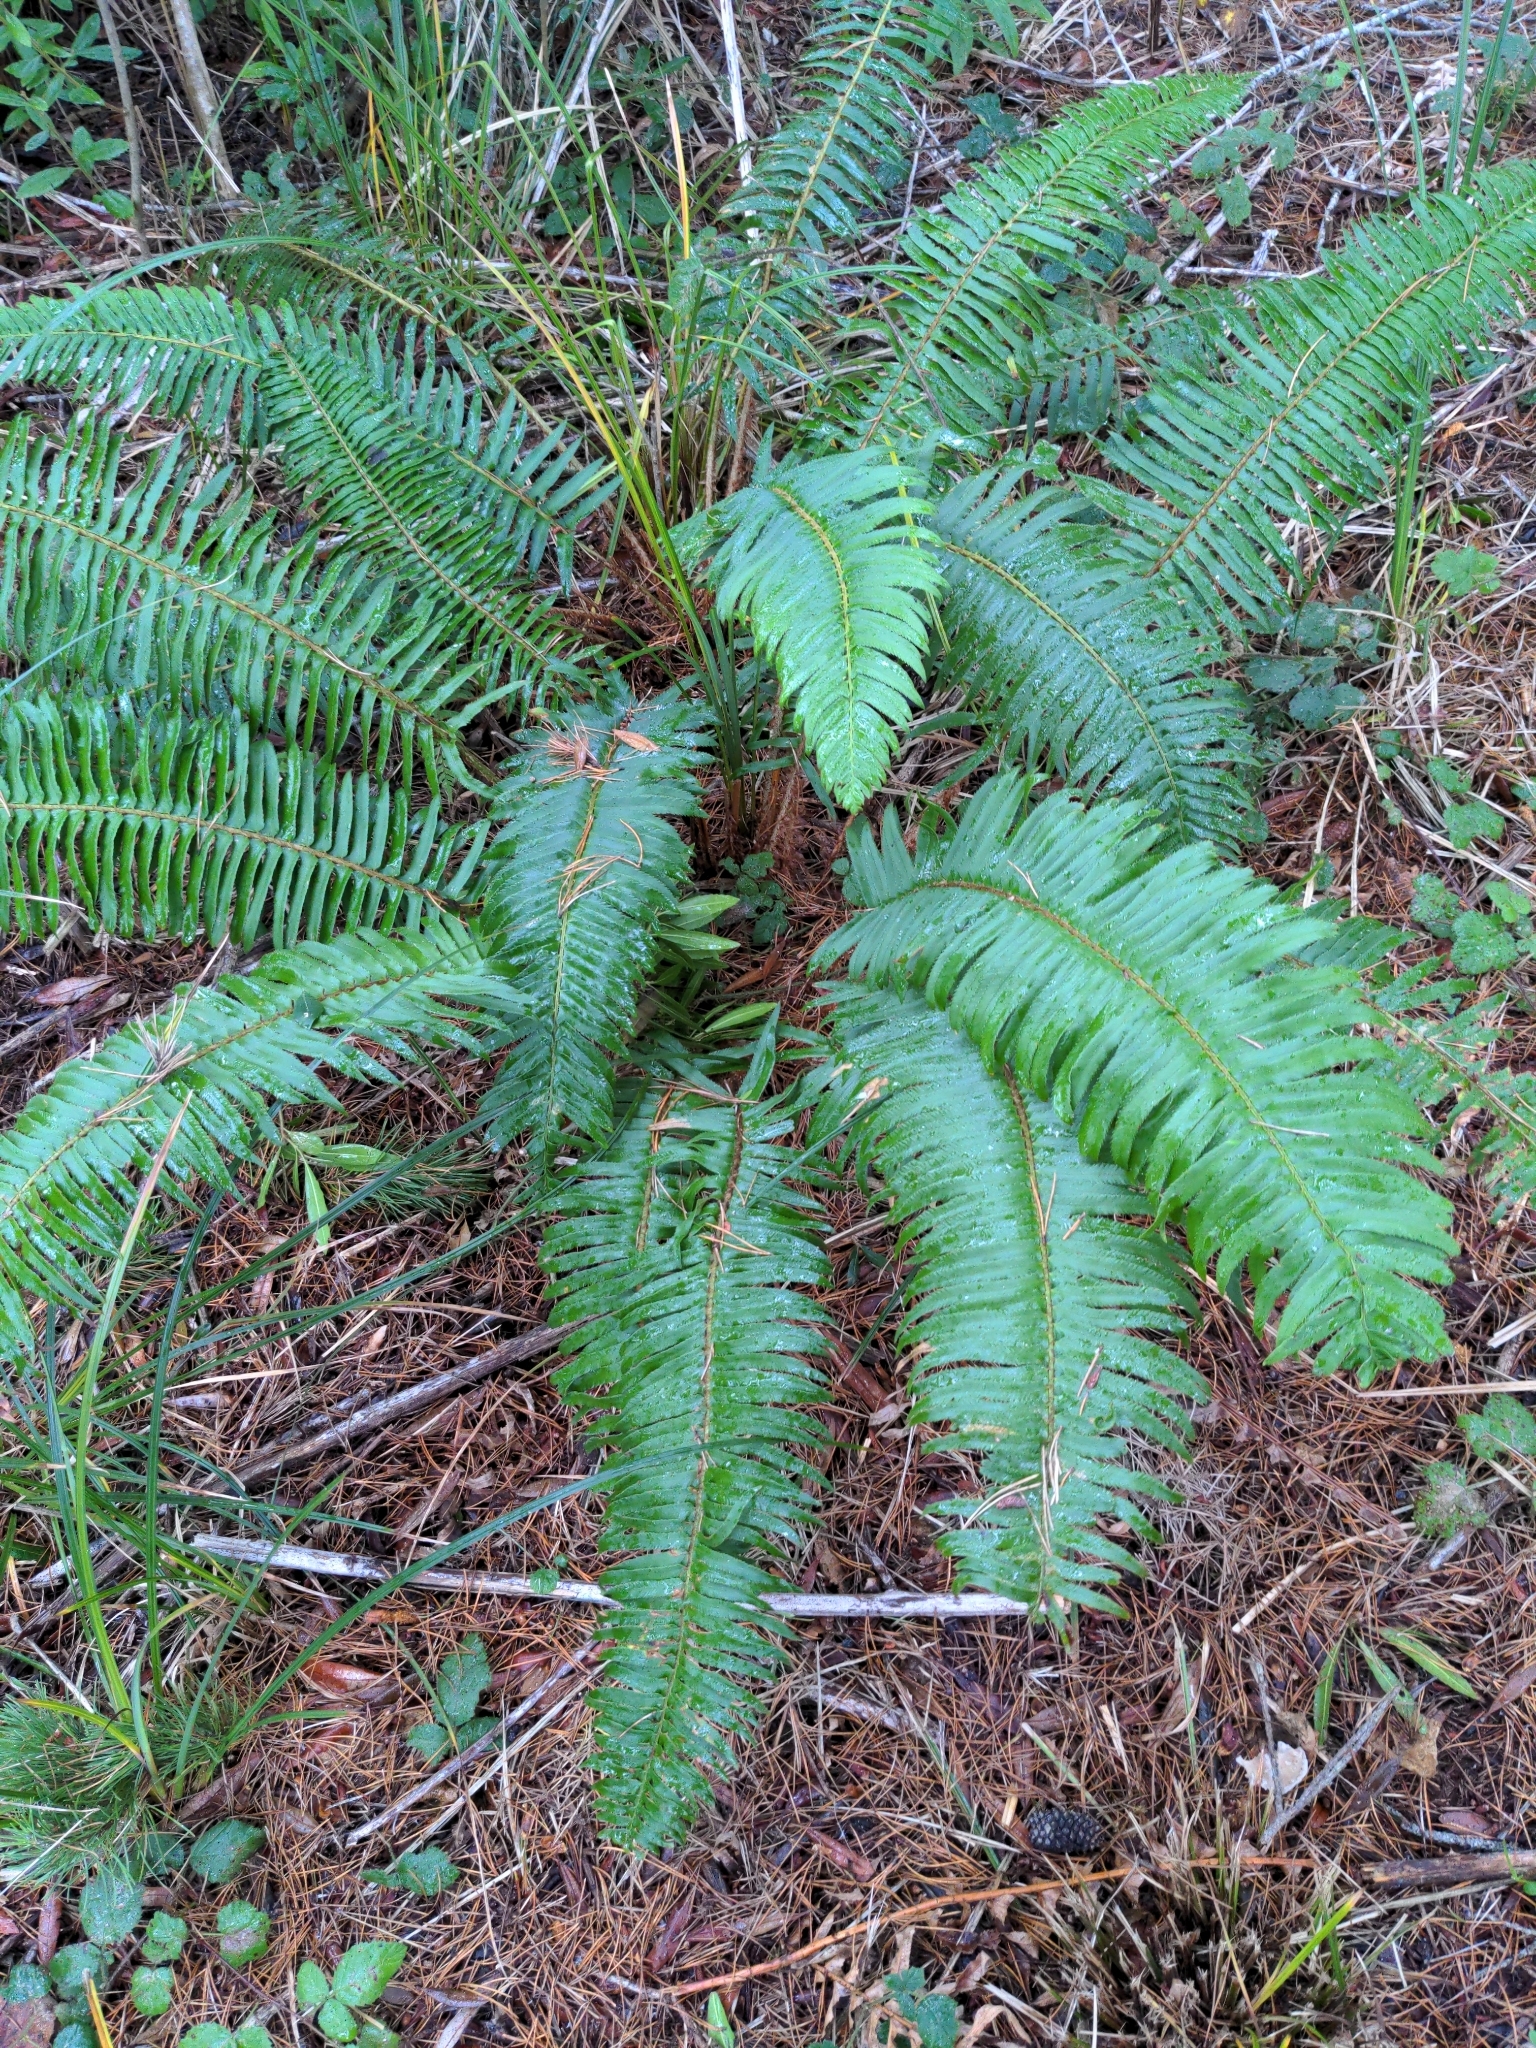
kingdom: Plantae
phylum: Tracheophyta
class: Polypodiopsida
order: Polypodiales
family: Dryopteridaceae
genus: Polystichum
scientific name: Polystichum munitum
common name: Western sword-fern
